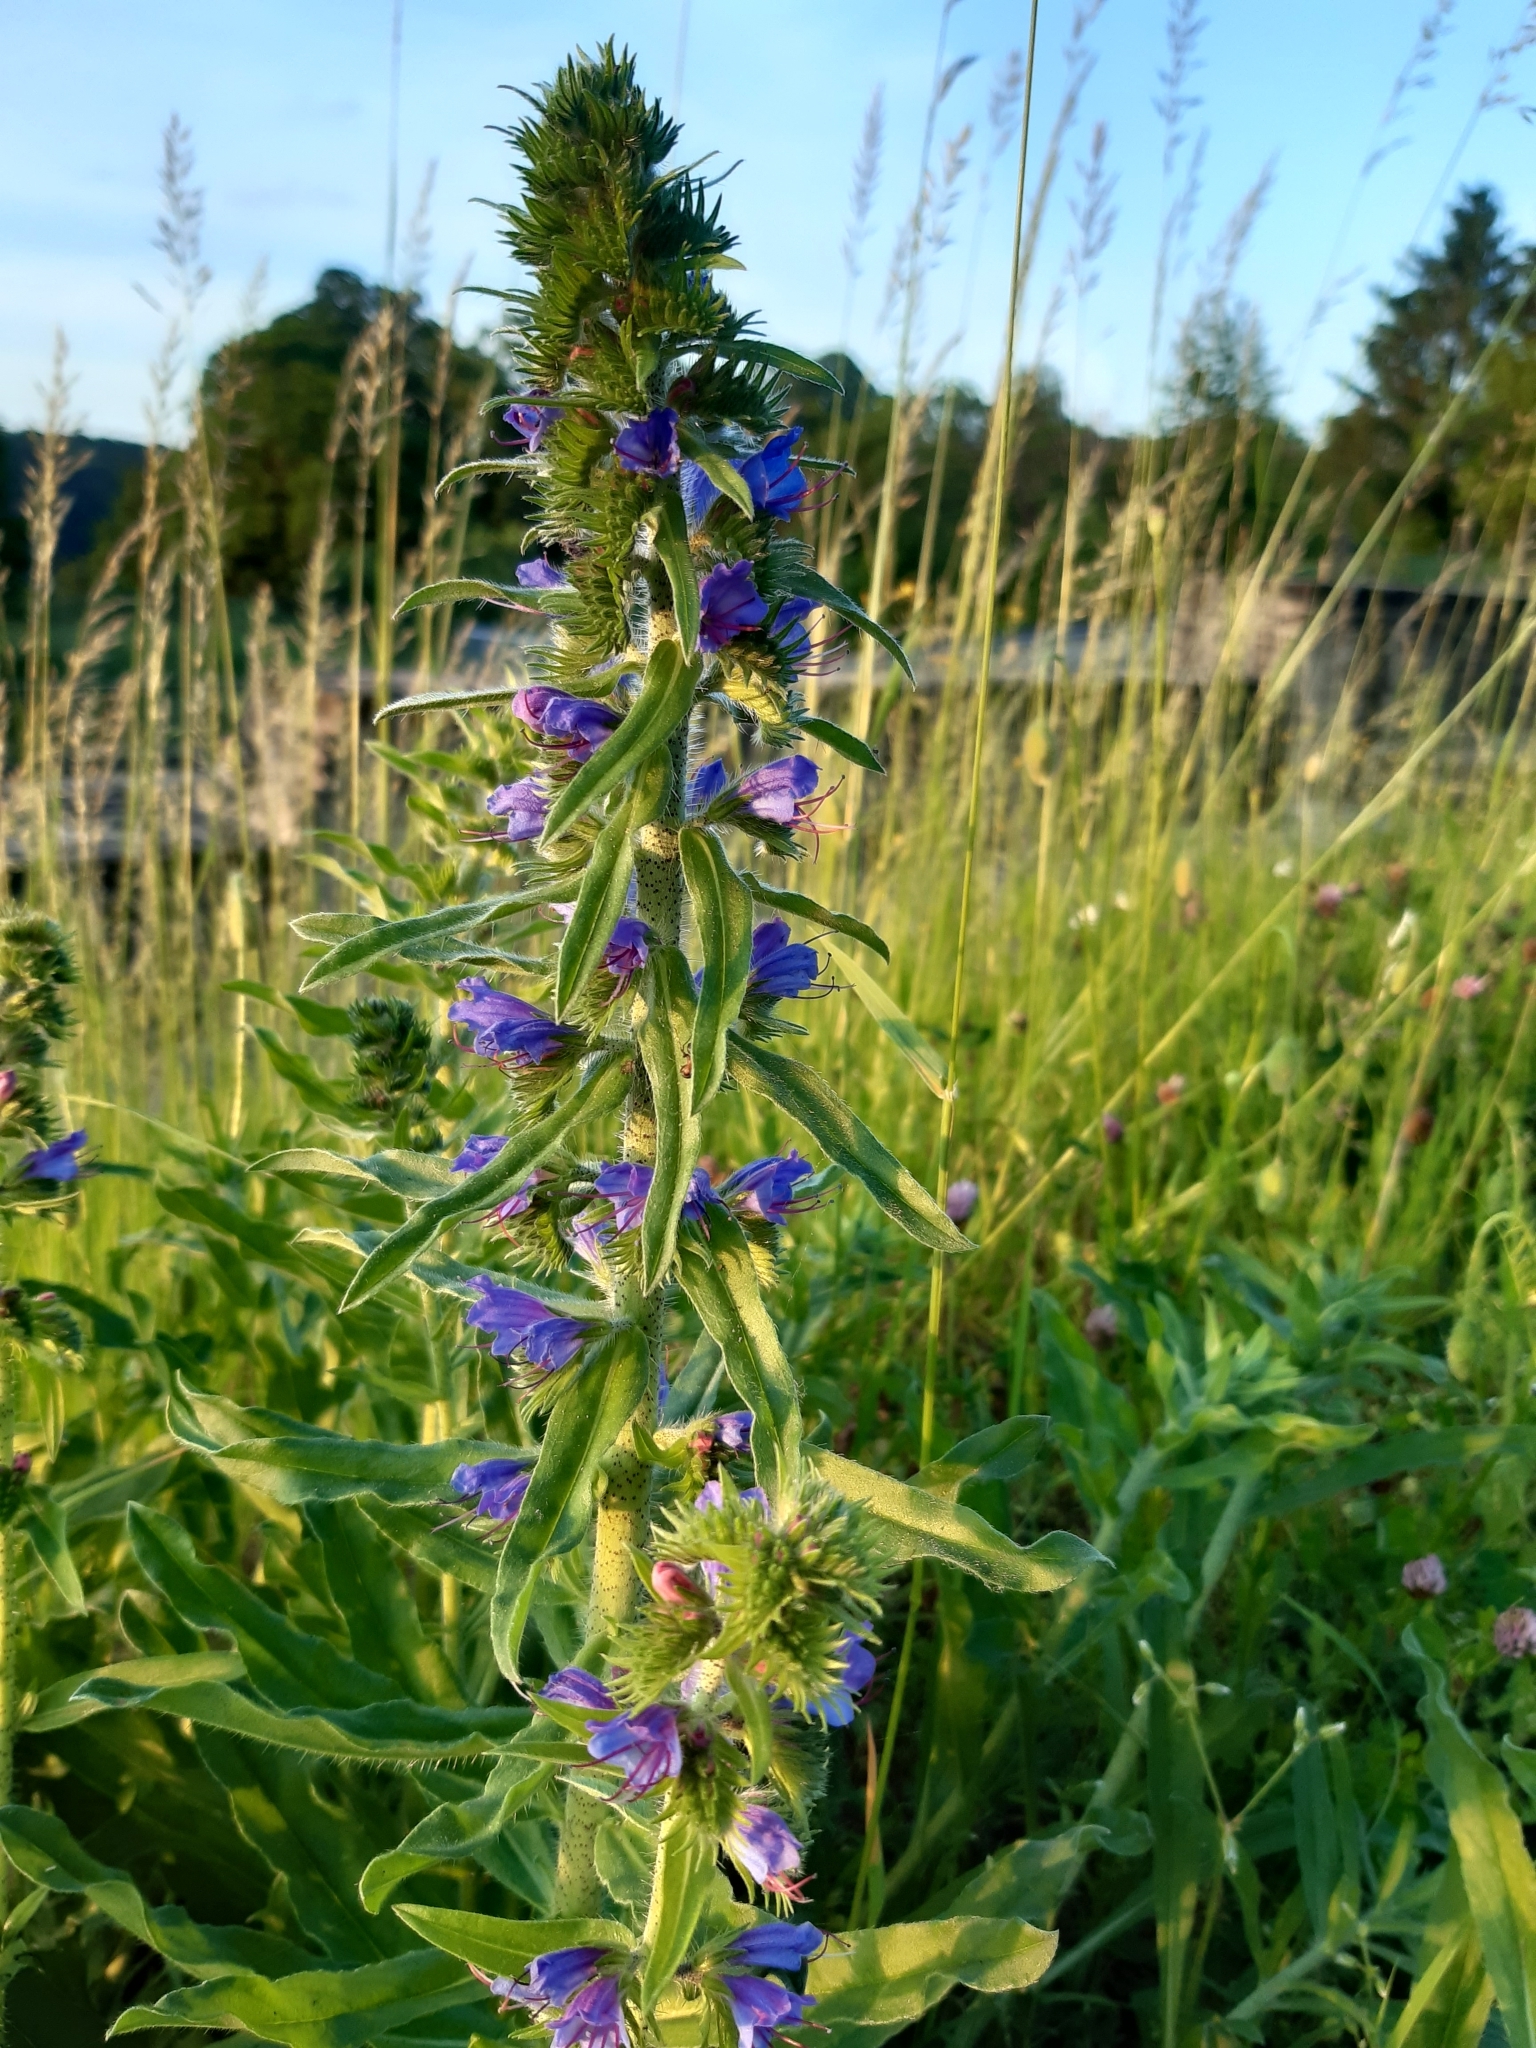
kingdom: Plantae
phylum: Tracheophyta
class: Magnoliopsida
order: Boraginales
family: Boraginaceae
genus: Echium
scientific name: Echium vulgare
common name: Common viper's bugloss
